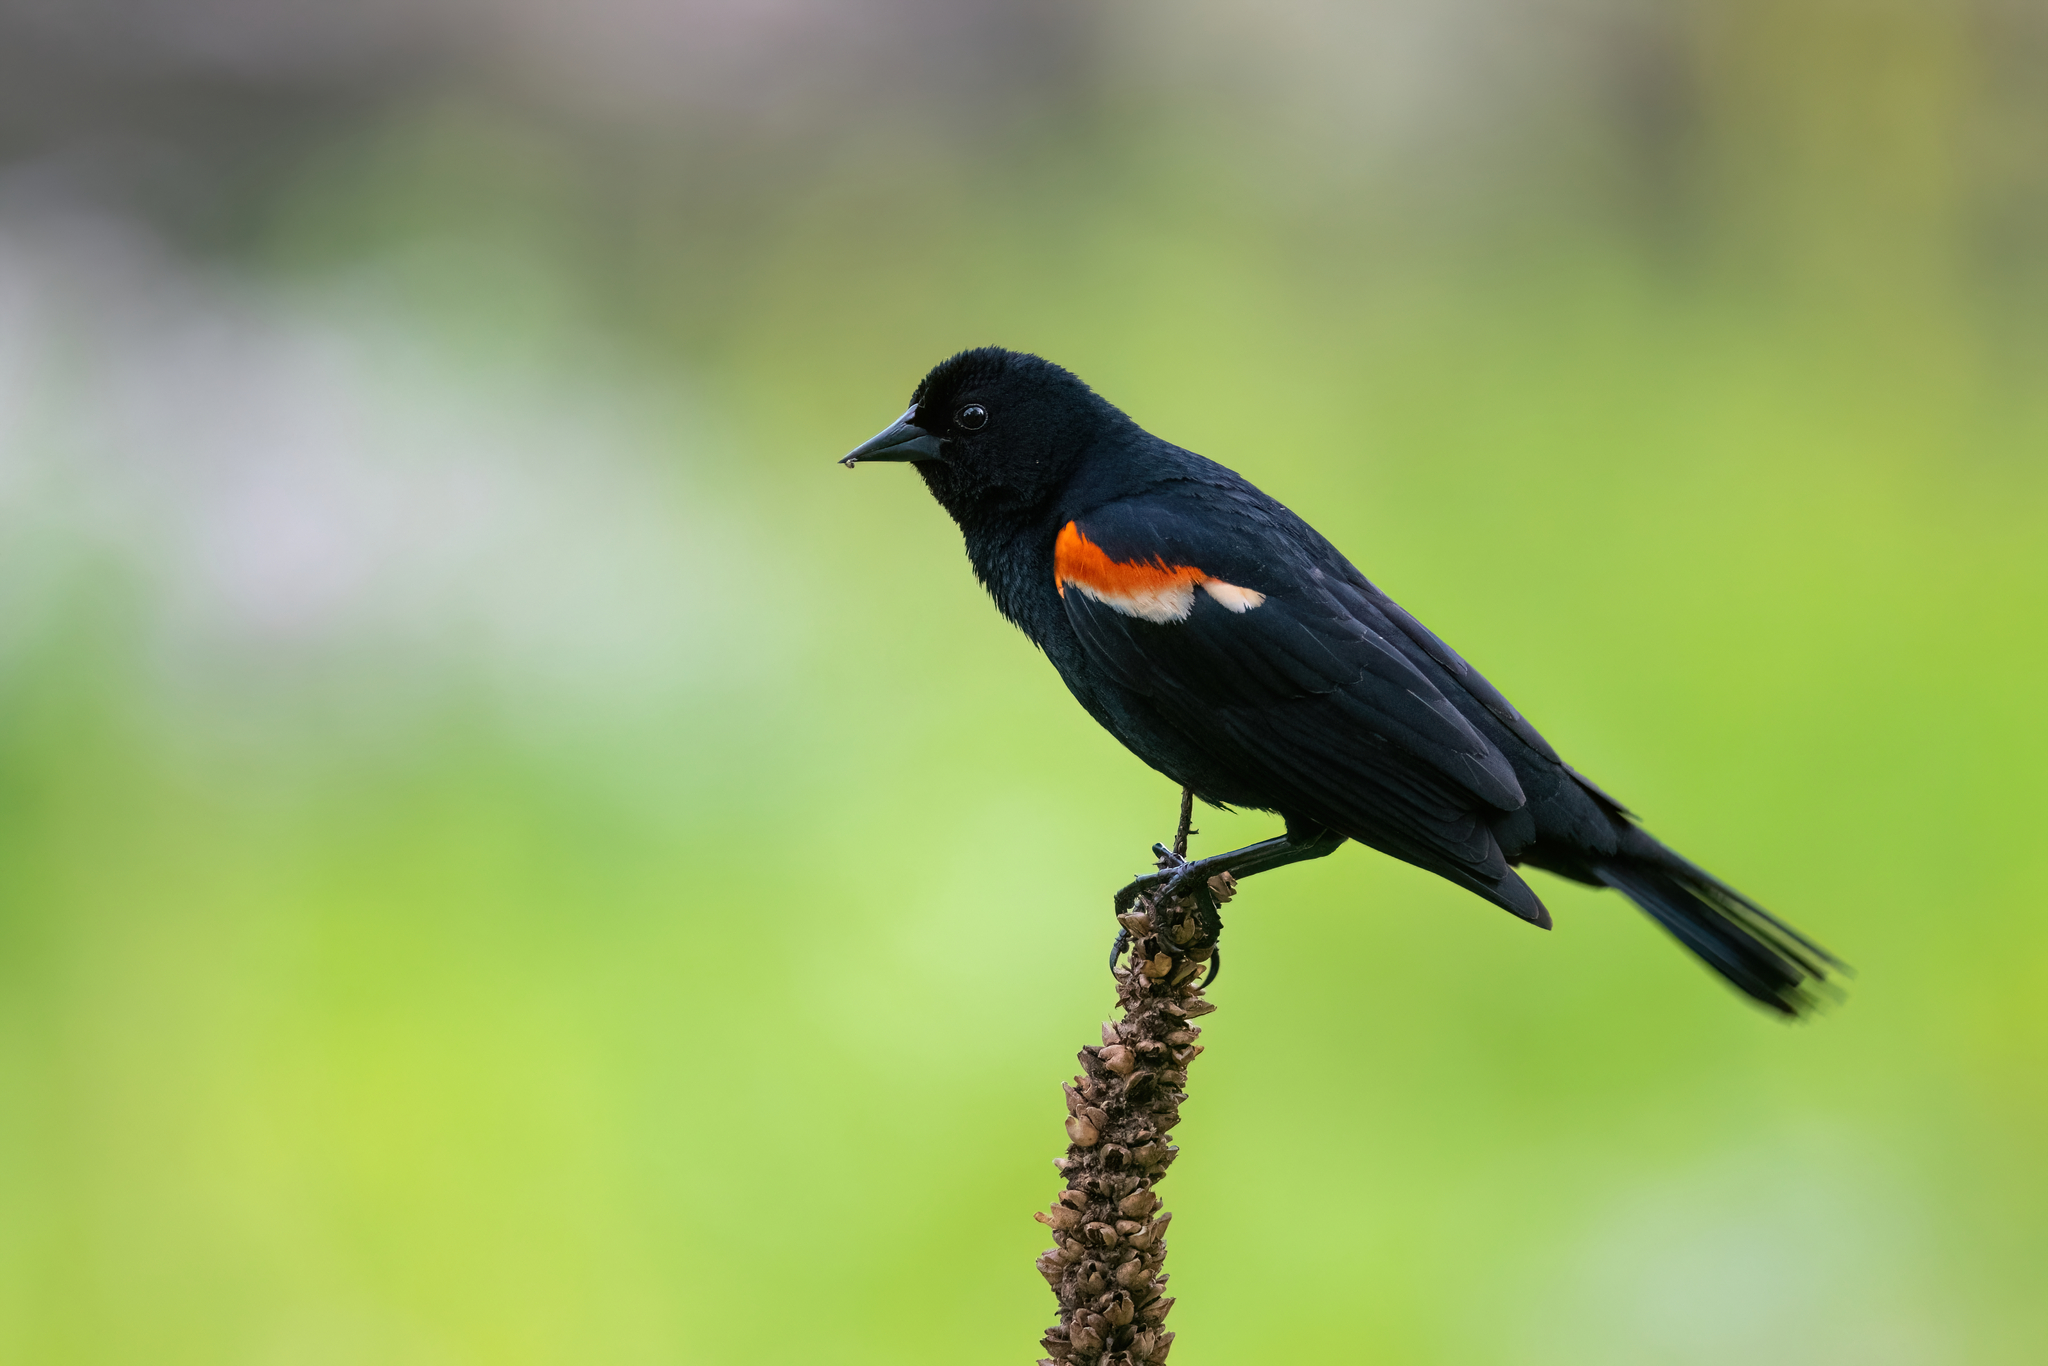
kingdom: Animalia
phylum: Chordata
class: Aves
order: Passeriformes
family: Icteridae
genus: Agelaius
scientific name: Agelaius phoeniceus
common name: Red-winged blackbird
